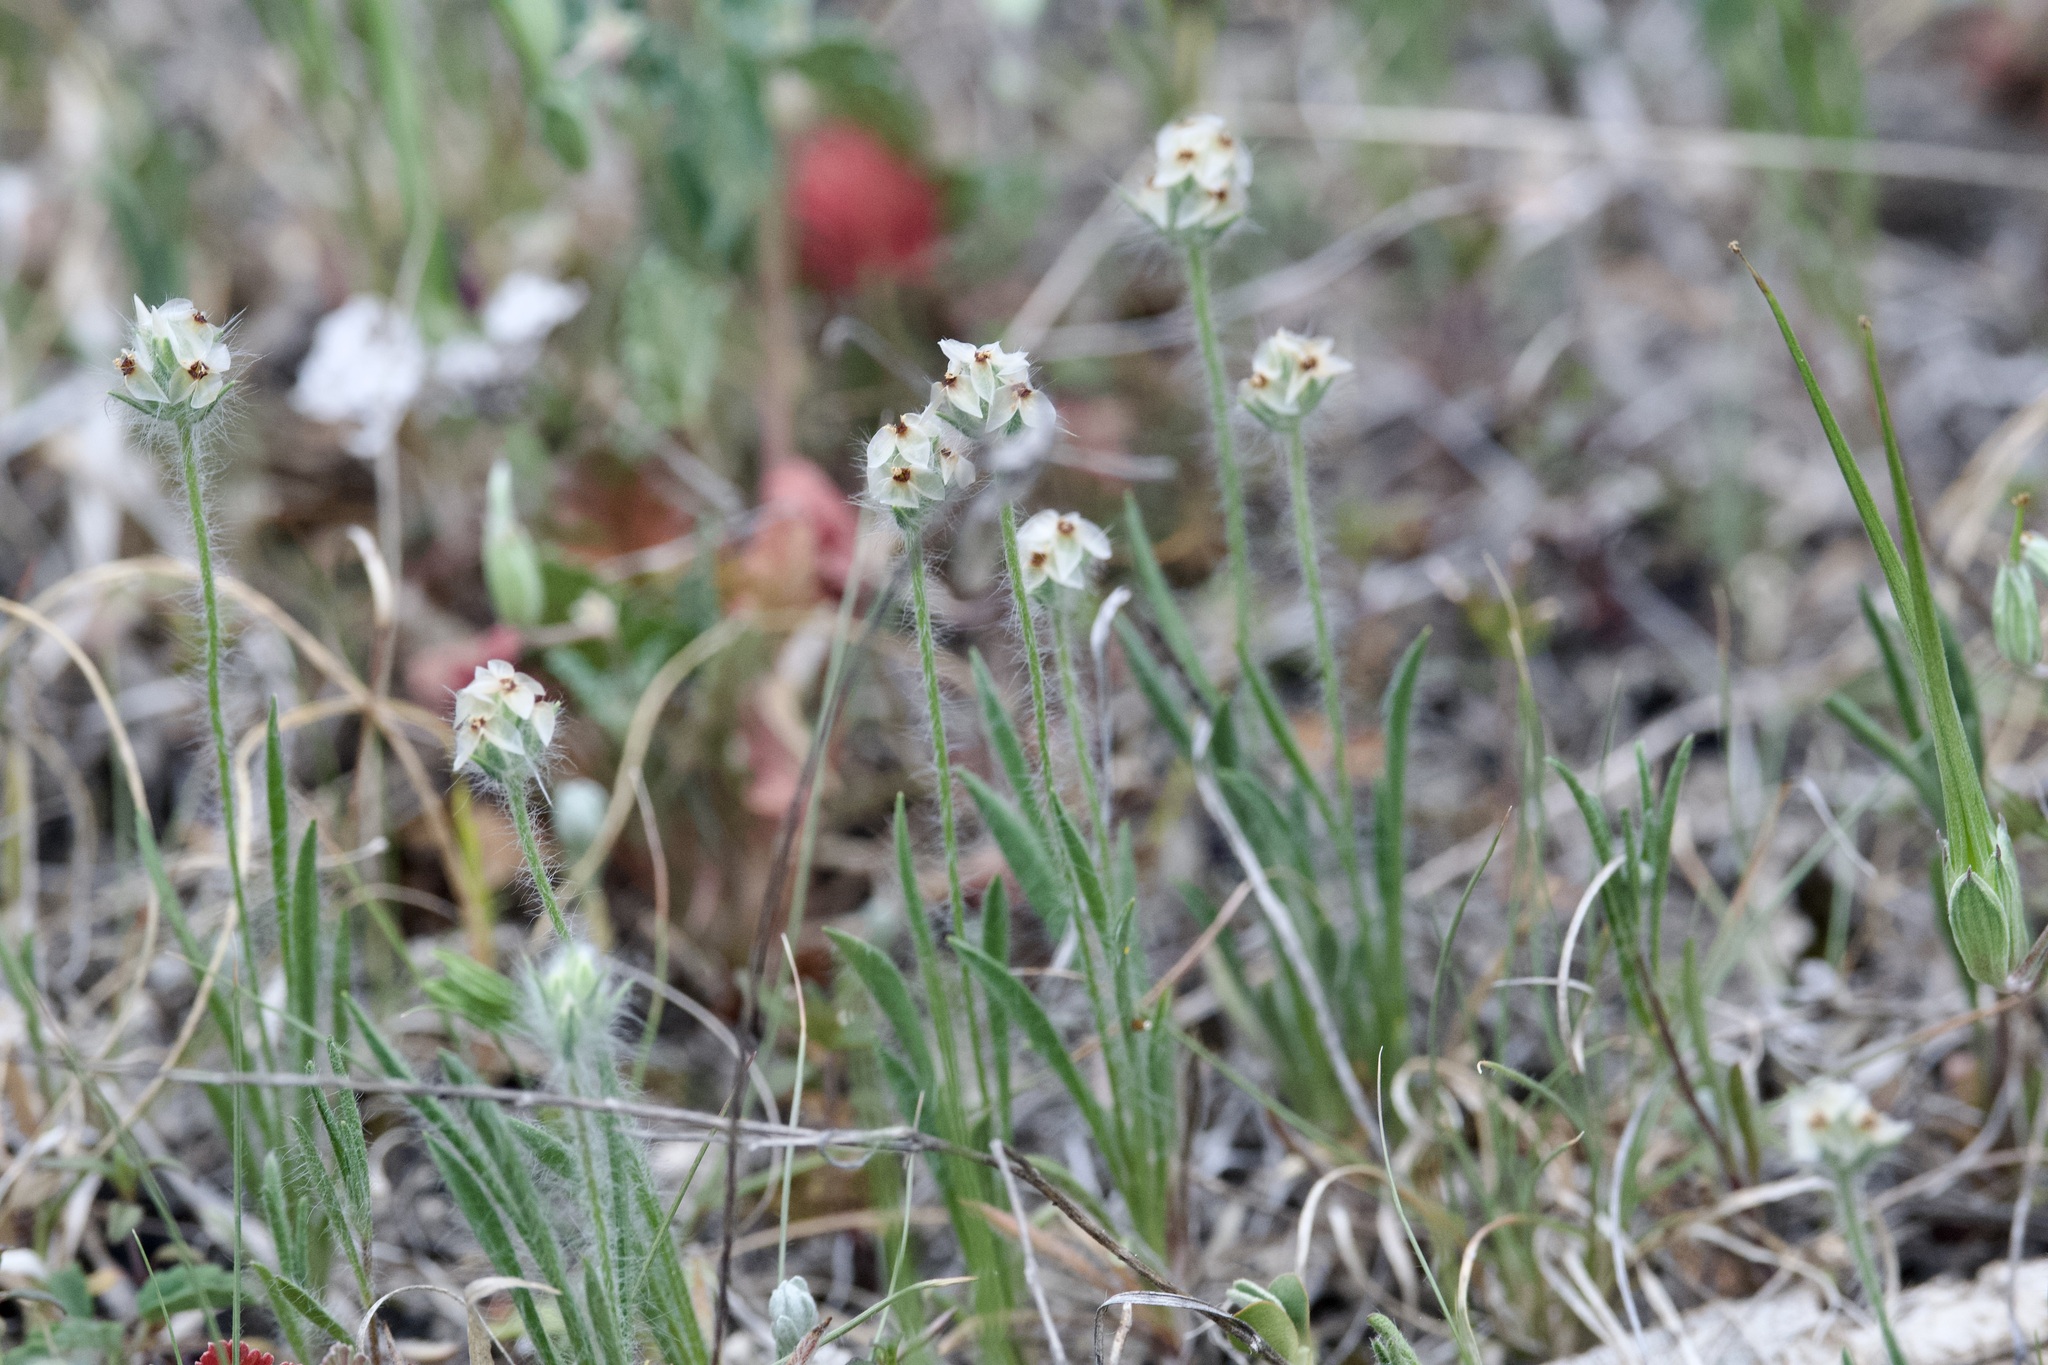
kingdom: Plantae
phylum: Tracheophyta
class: Magnoliopsida
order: Lamiales
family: Plantaginaceae
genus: Plantago
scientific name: Plantago helleri
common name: Heller's plantain
